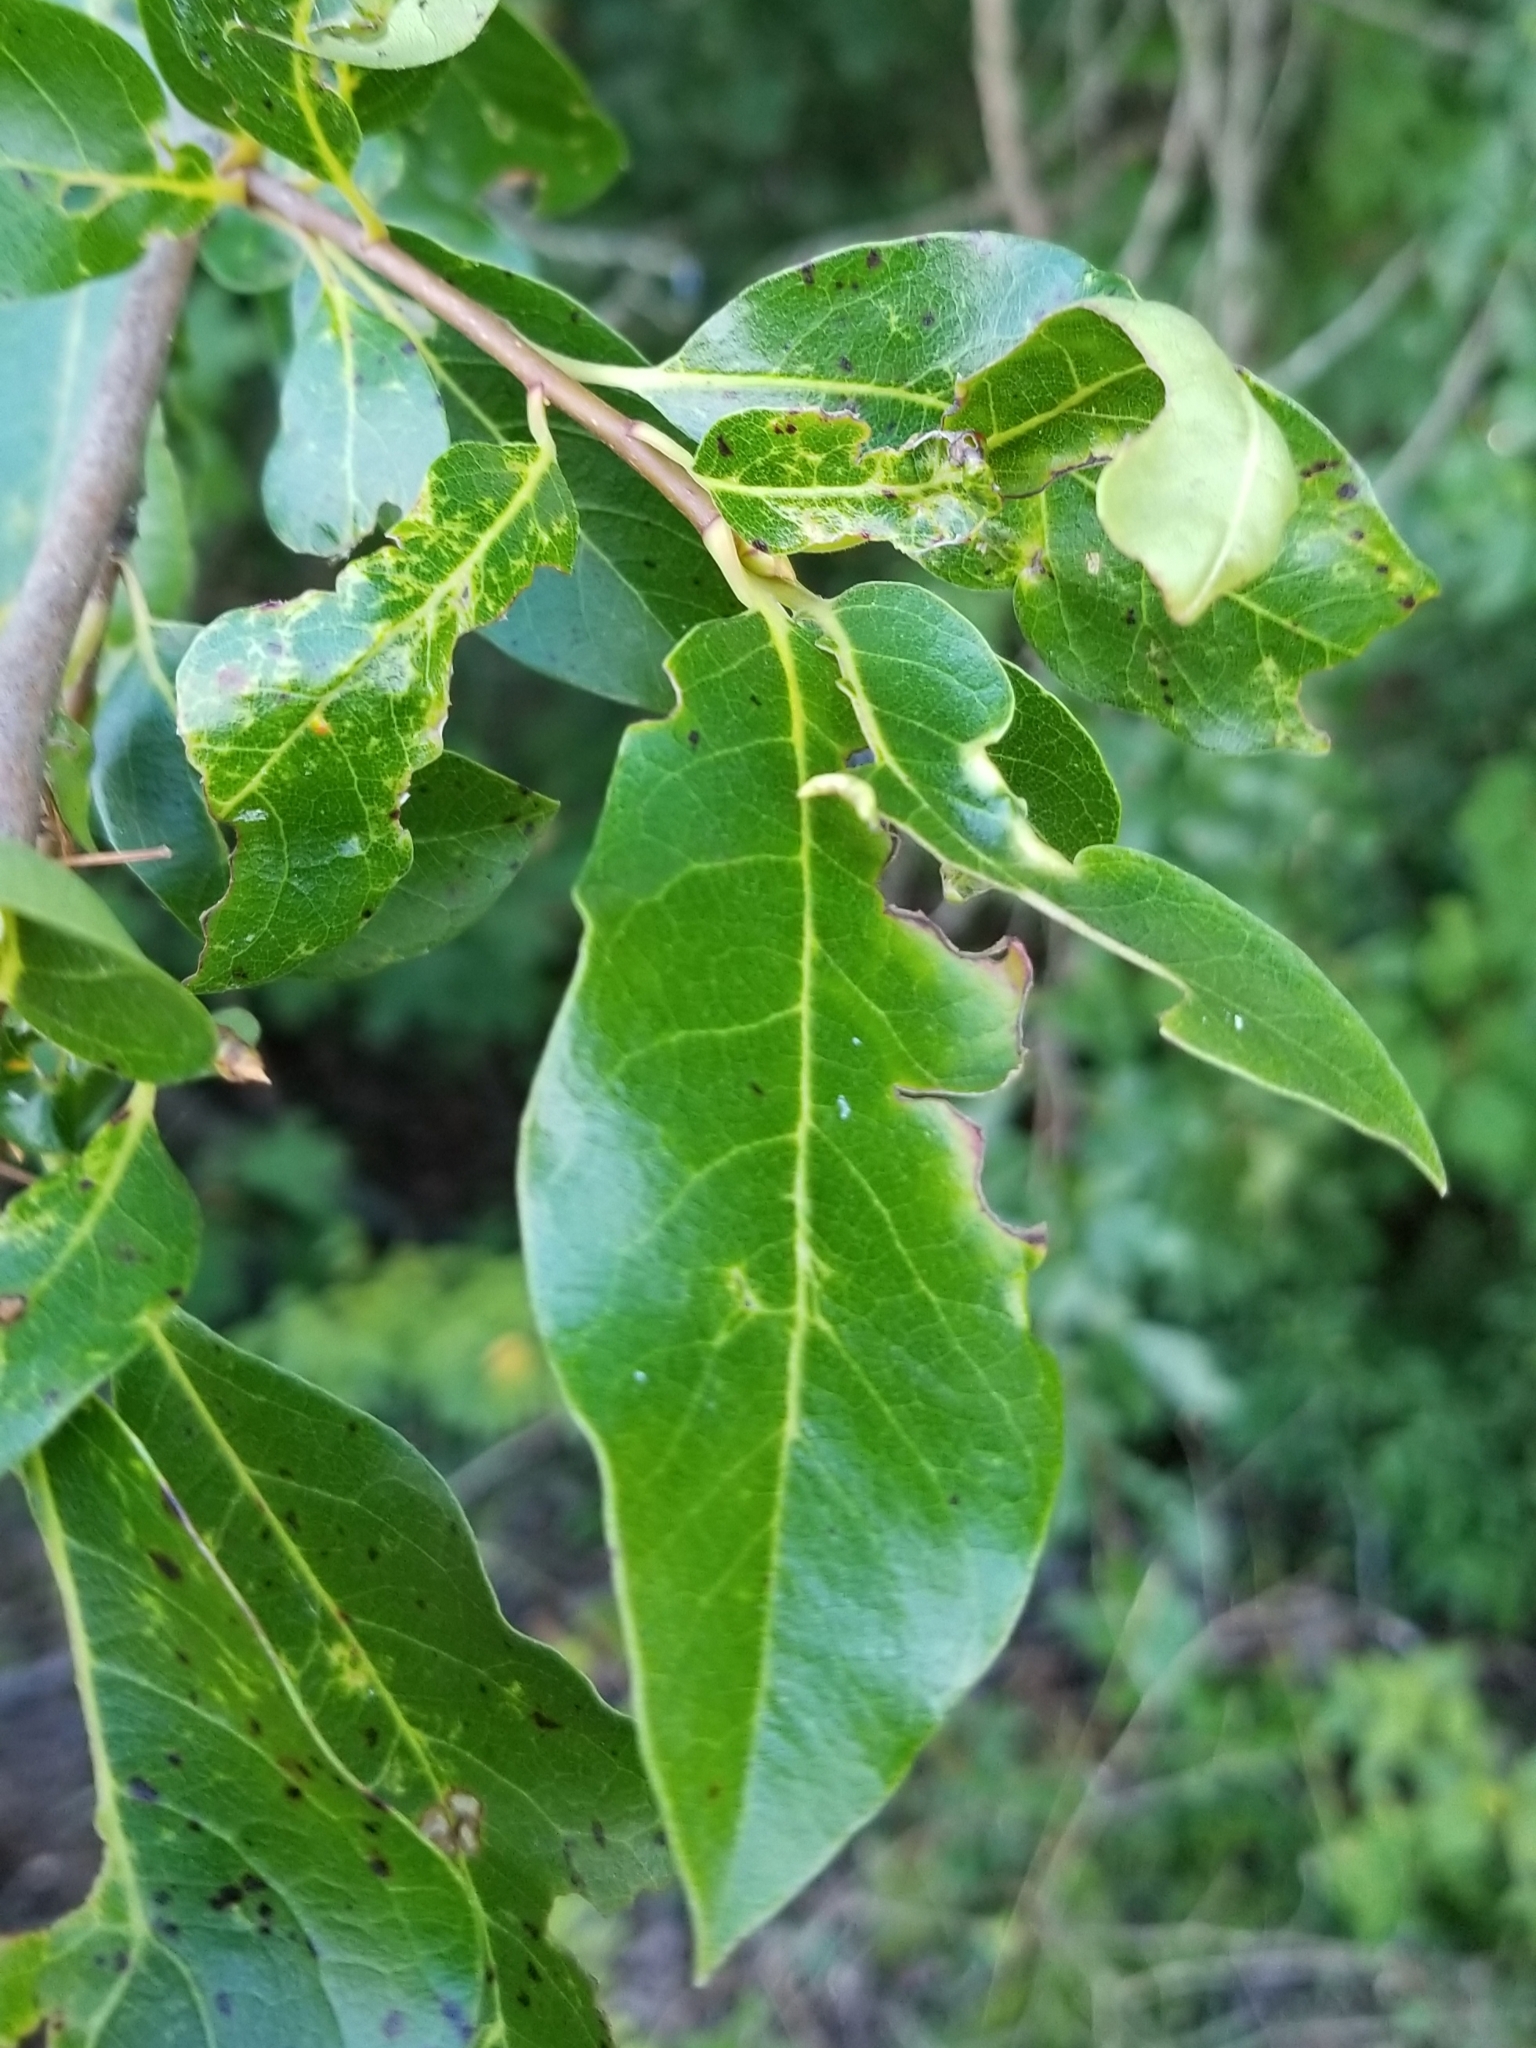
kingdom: Plantae
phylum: Tracheophyta
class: Magnoliopsida
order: Cornales
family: Nyssaceae
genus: Nyssa
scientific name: Nyssa sylvatica
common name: Black tupelo
